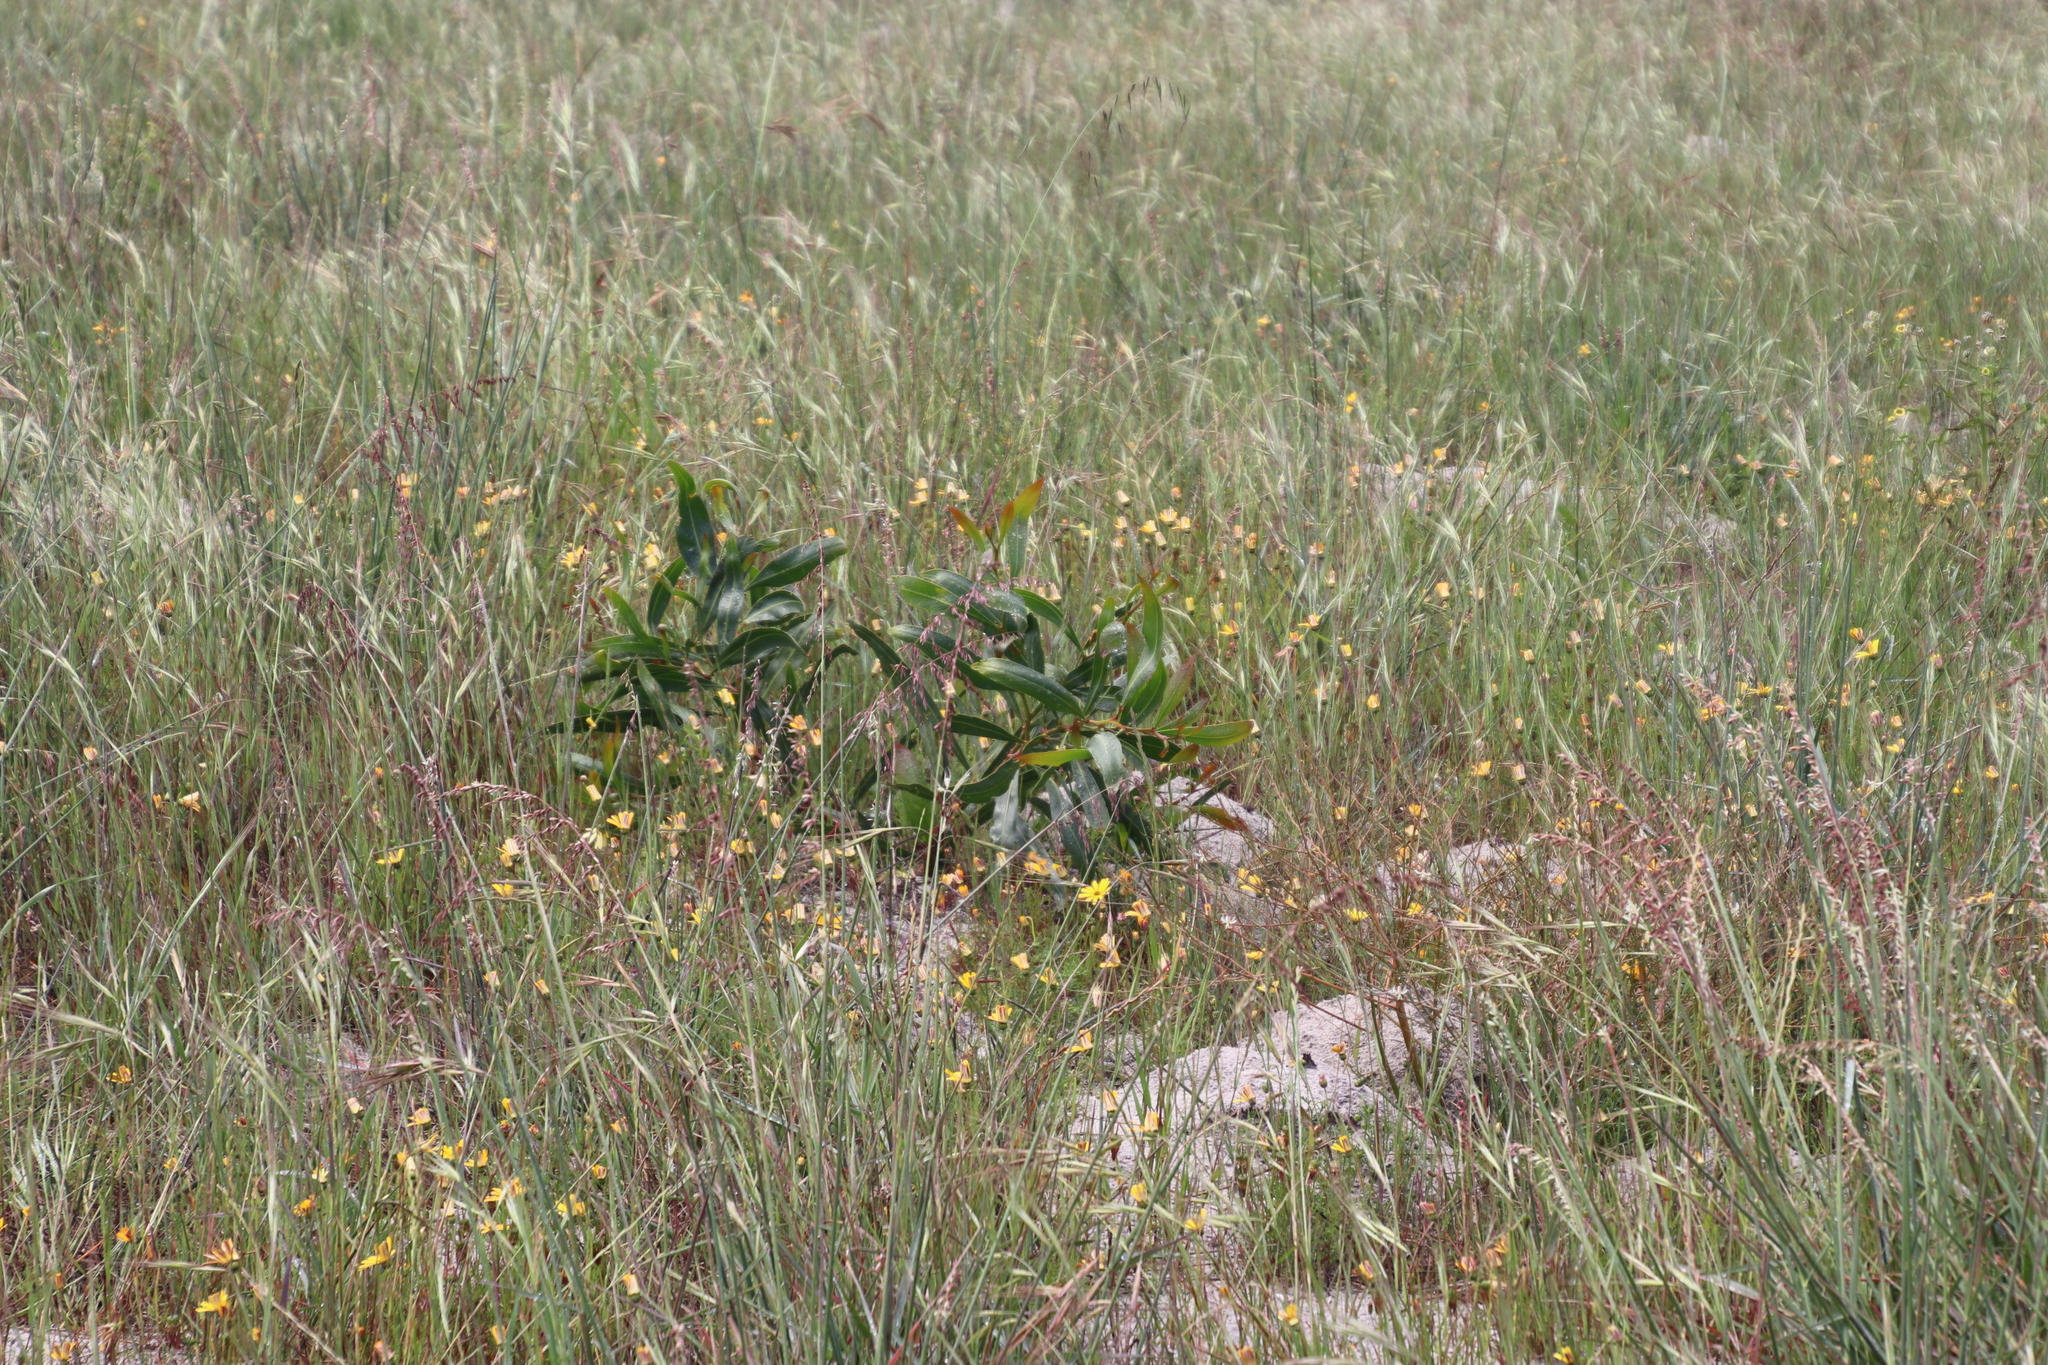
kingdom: Plantae
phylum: Tracheophyta
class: Magnoliopsida
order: Fabales
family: Fabaceae
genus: Acacia
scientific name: Acacia saligna
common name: Orange wattle
